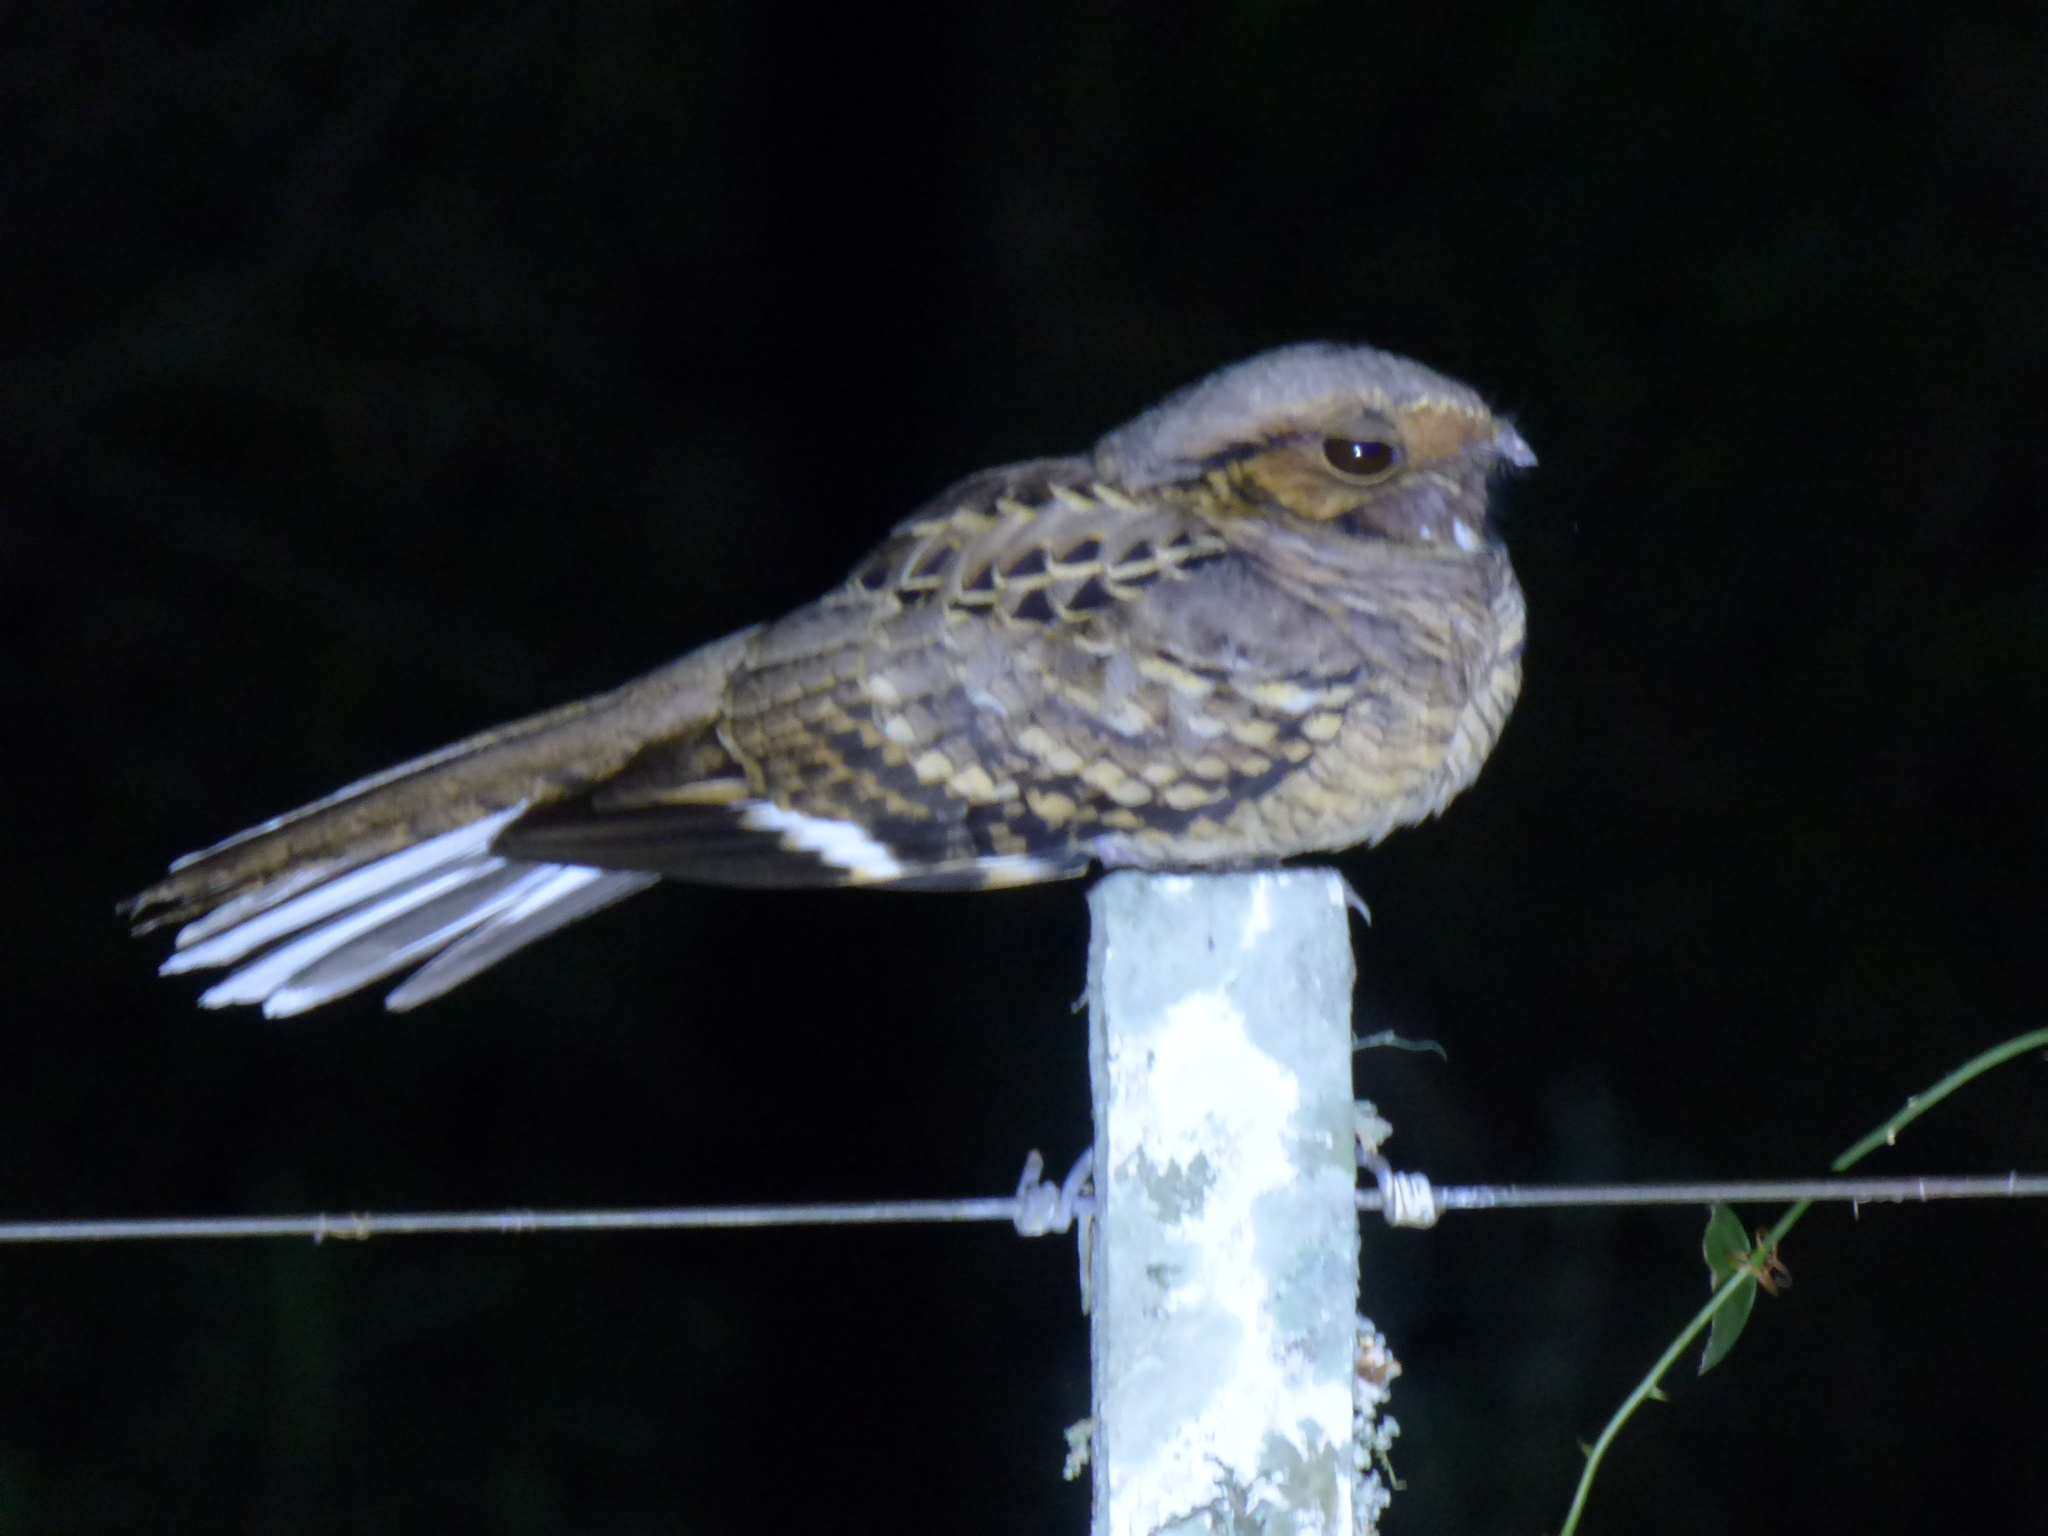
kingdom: Animalia
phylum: Chordata
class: Aves
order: Caprimulgiformes
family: Caprimulgidae
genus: Nyctidromus
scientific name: Nyctidromus albicollis
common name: Pauraque
